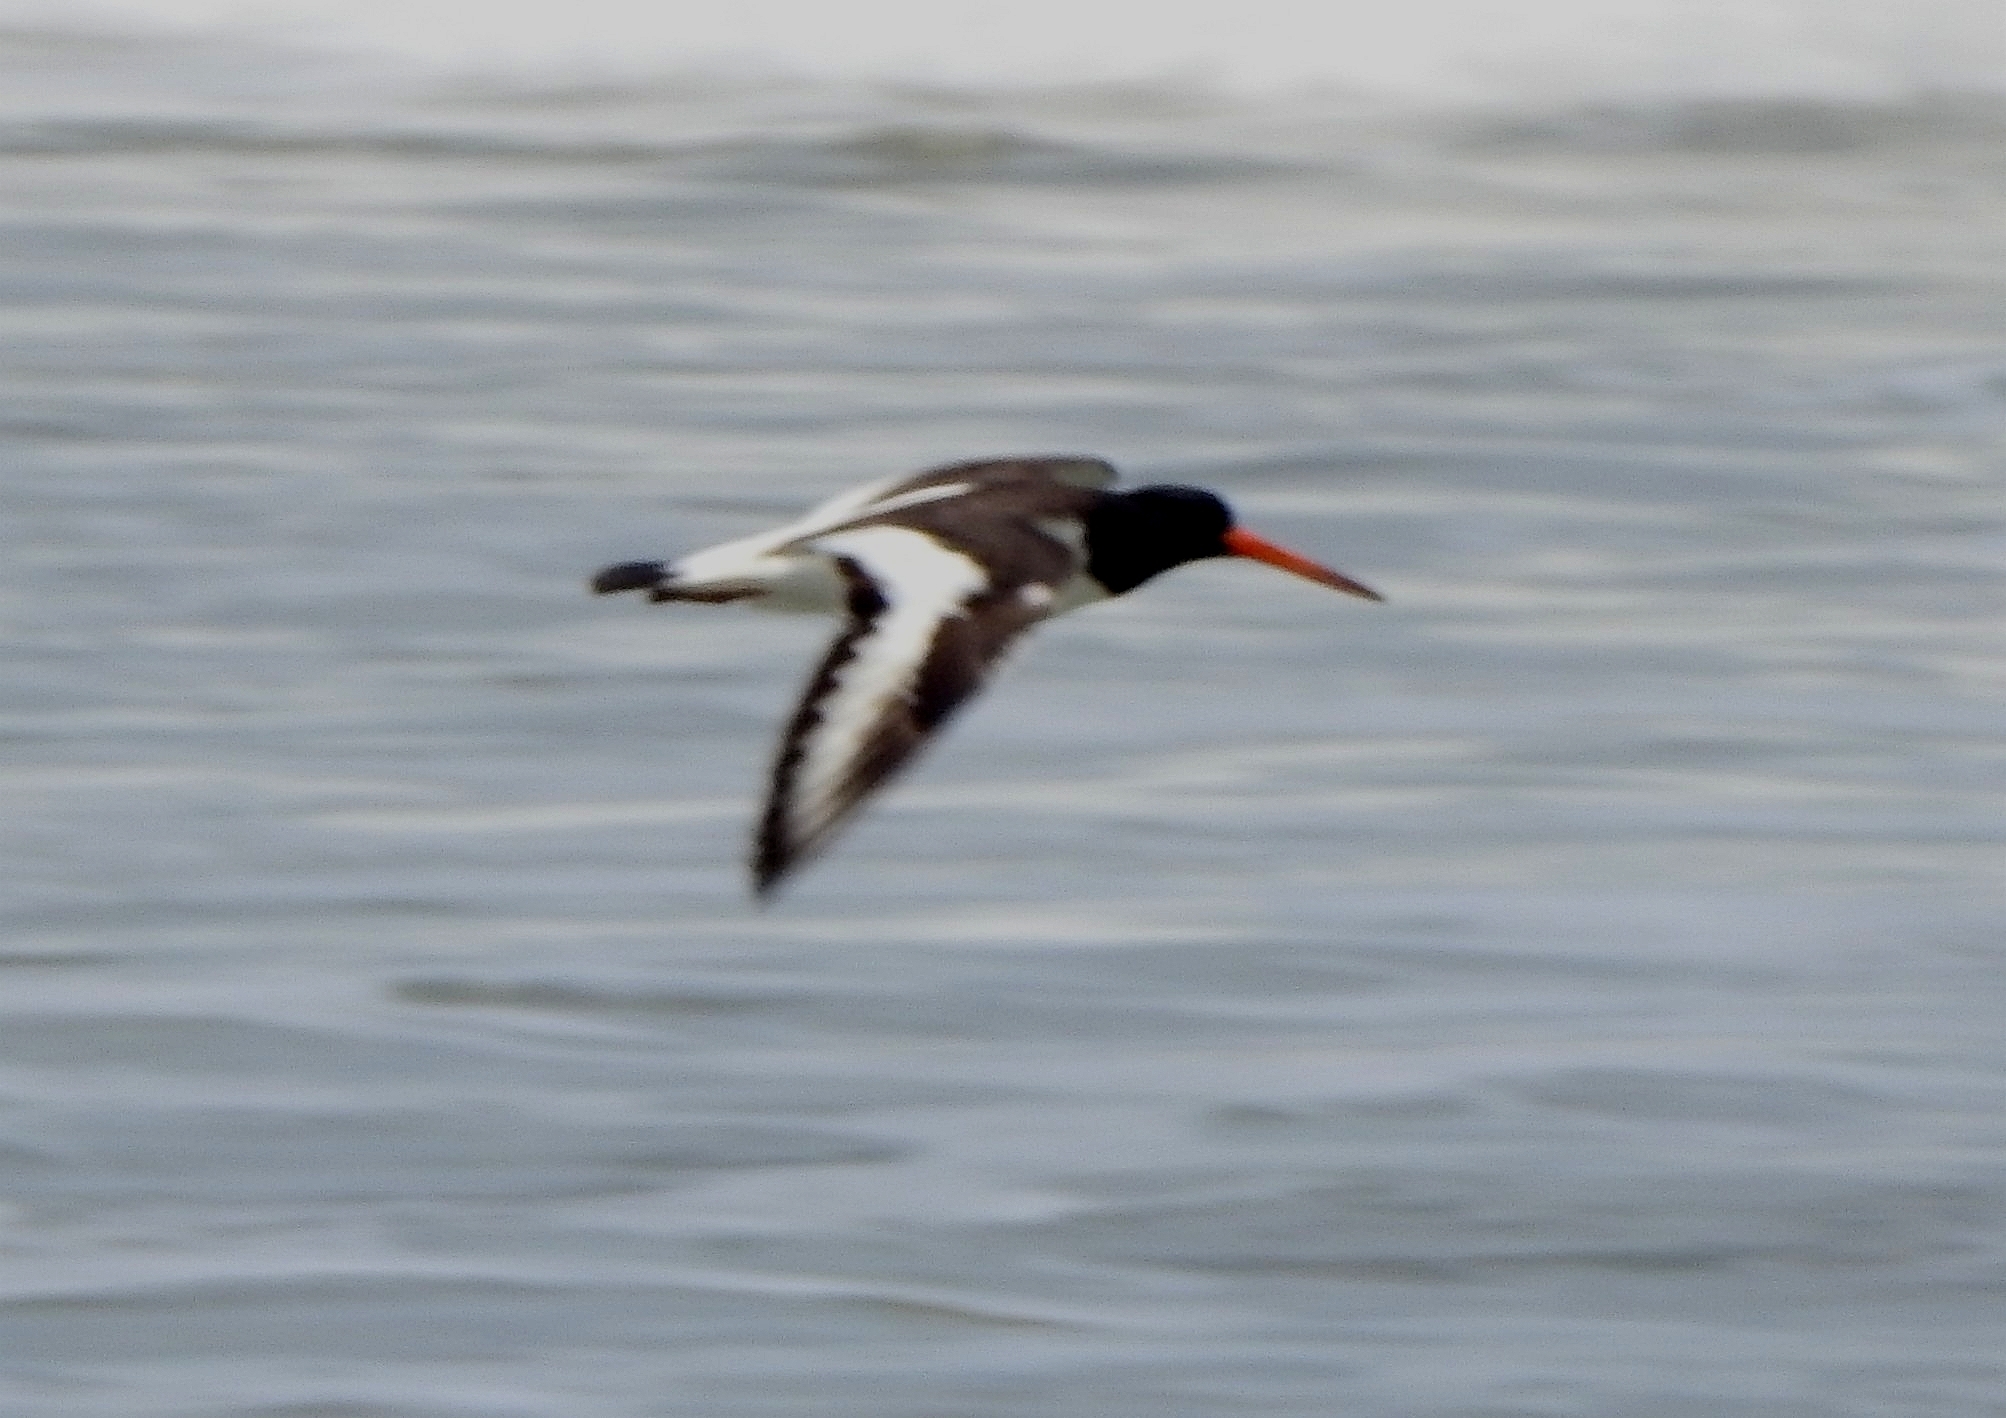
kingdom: Animalia
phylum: Chordata
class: Aves
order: Charadriiformes
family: Haematopodidae
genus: Haematopus
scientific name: Haematopus ostralegus
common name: Eurasian oystercatcher
